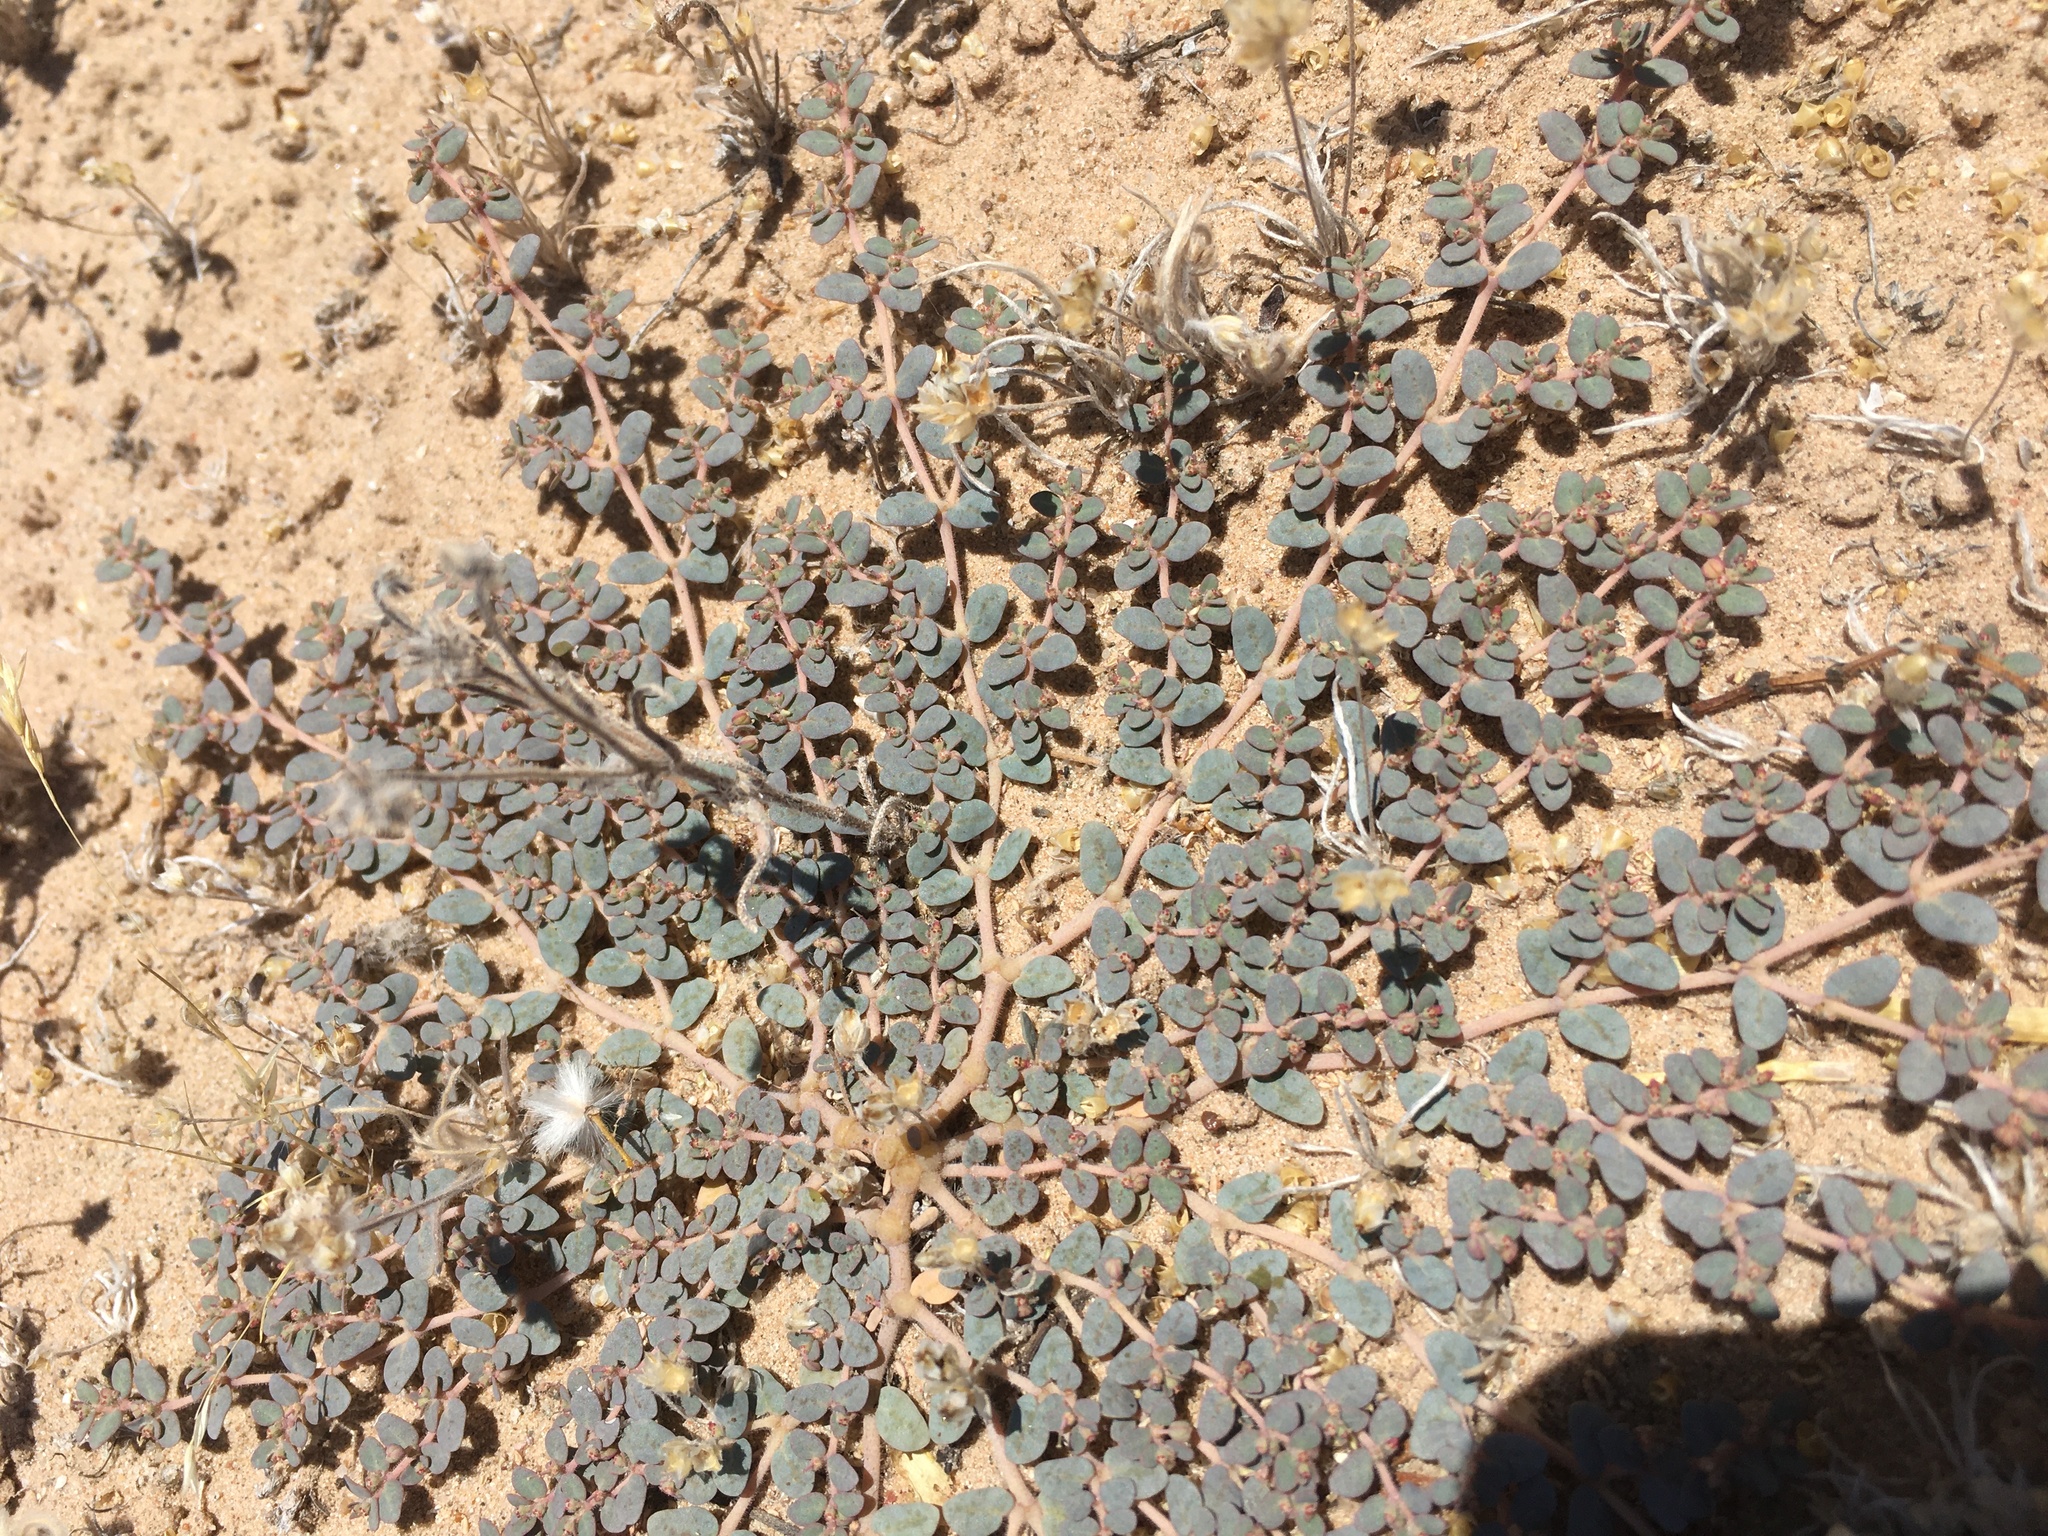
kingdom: Plantae
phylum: Tracheophyta
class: Magnoliopsida
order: Malpighiales
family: Euphorbiaceae
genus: Euphorbia
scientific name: Euphorbia micromera
